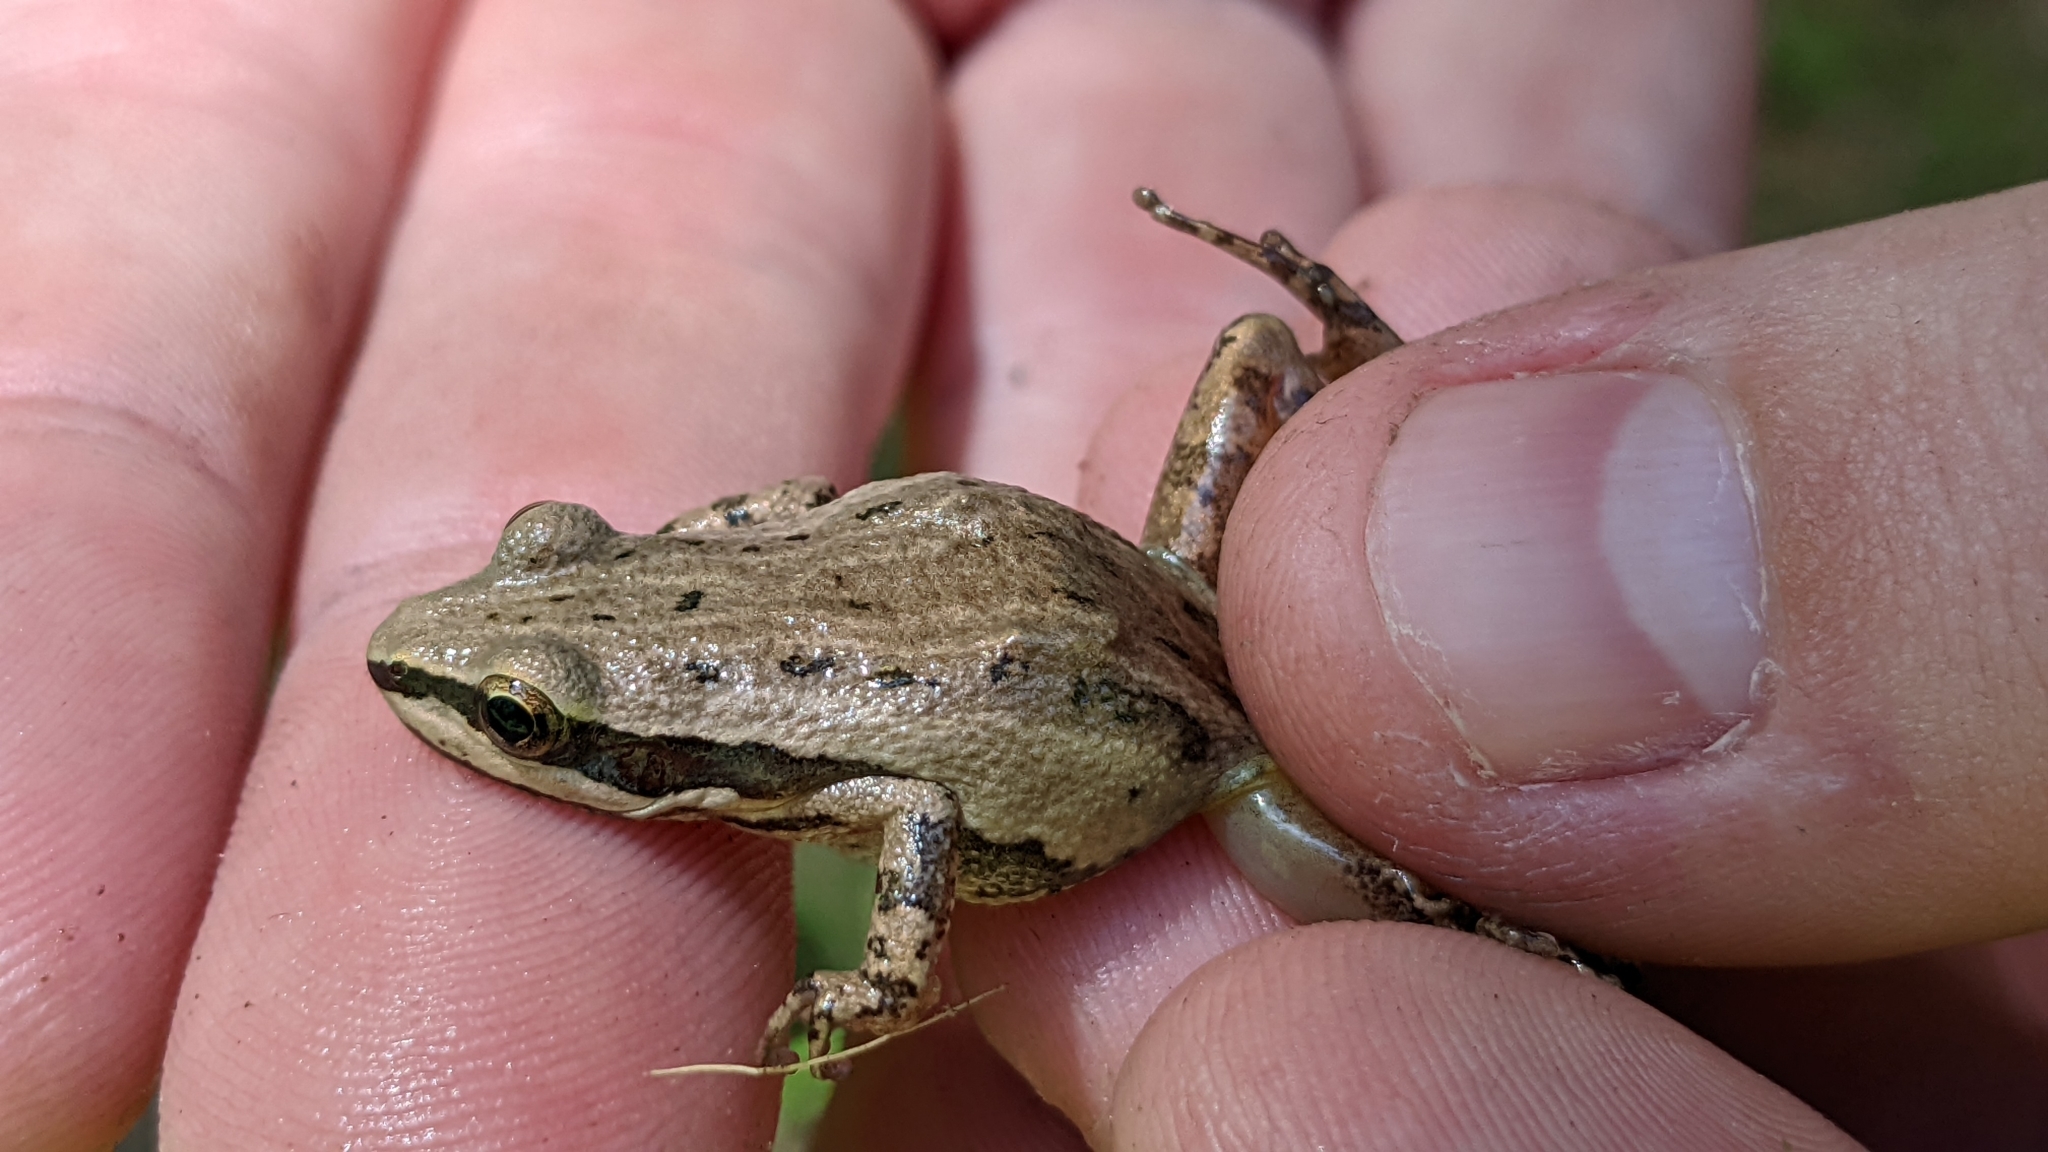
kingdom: Animalia
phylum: Chordata
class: Amphibia
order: Anura
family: Hylidae
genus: Pseudacris
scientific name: Pseudacris fouquettei
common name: Cajun chorus frog
